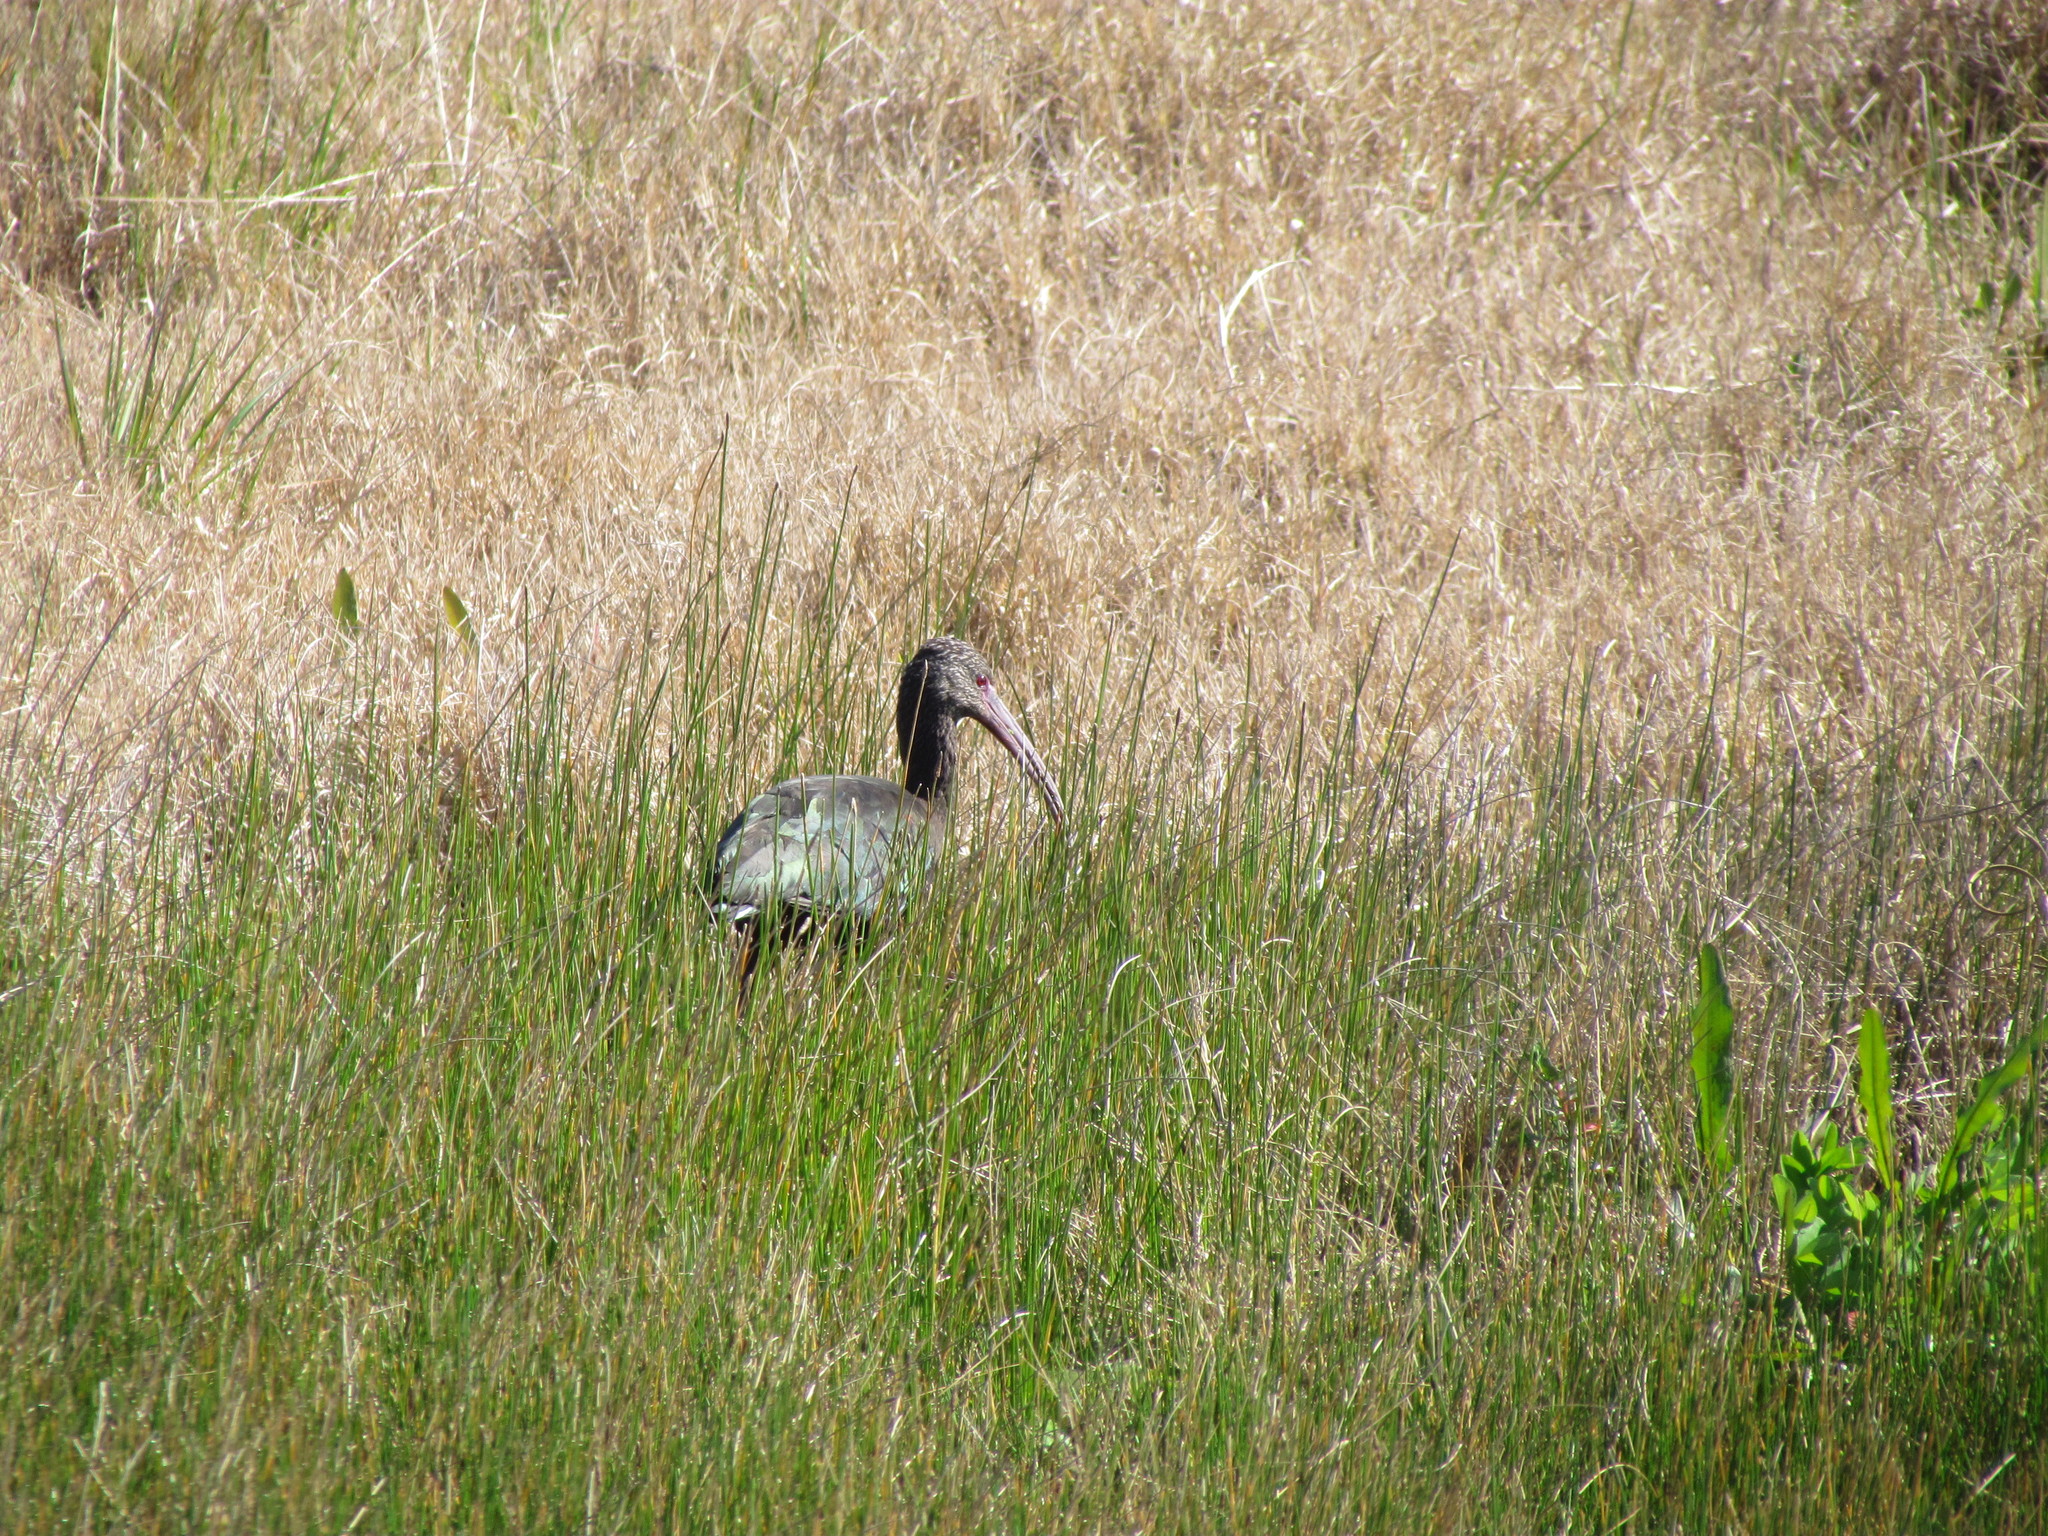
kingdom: Animalia
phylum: Chordata
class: Aves
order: Pelecaniformes
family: Threskiornithidae
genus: Plegadis
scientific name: Plegadis chihi
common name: White-faced ibis
